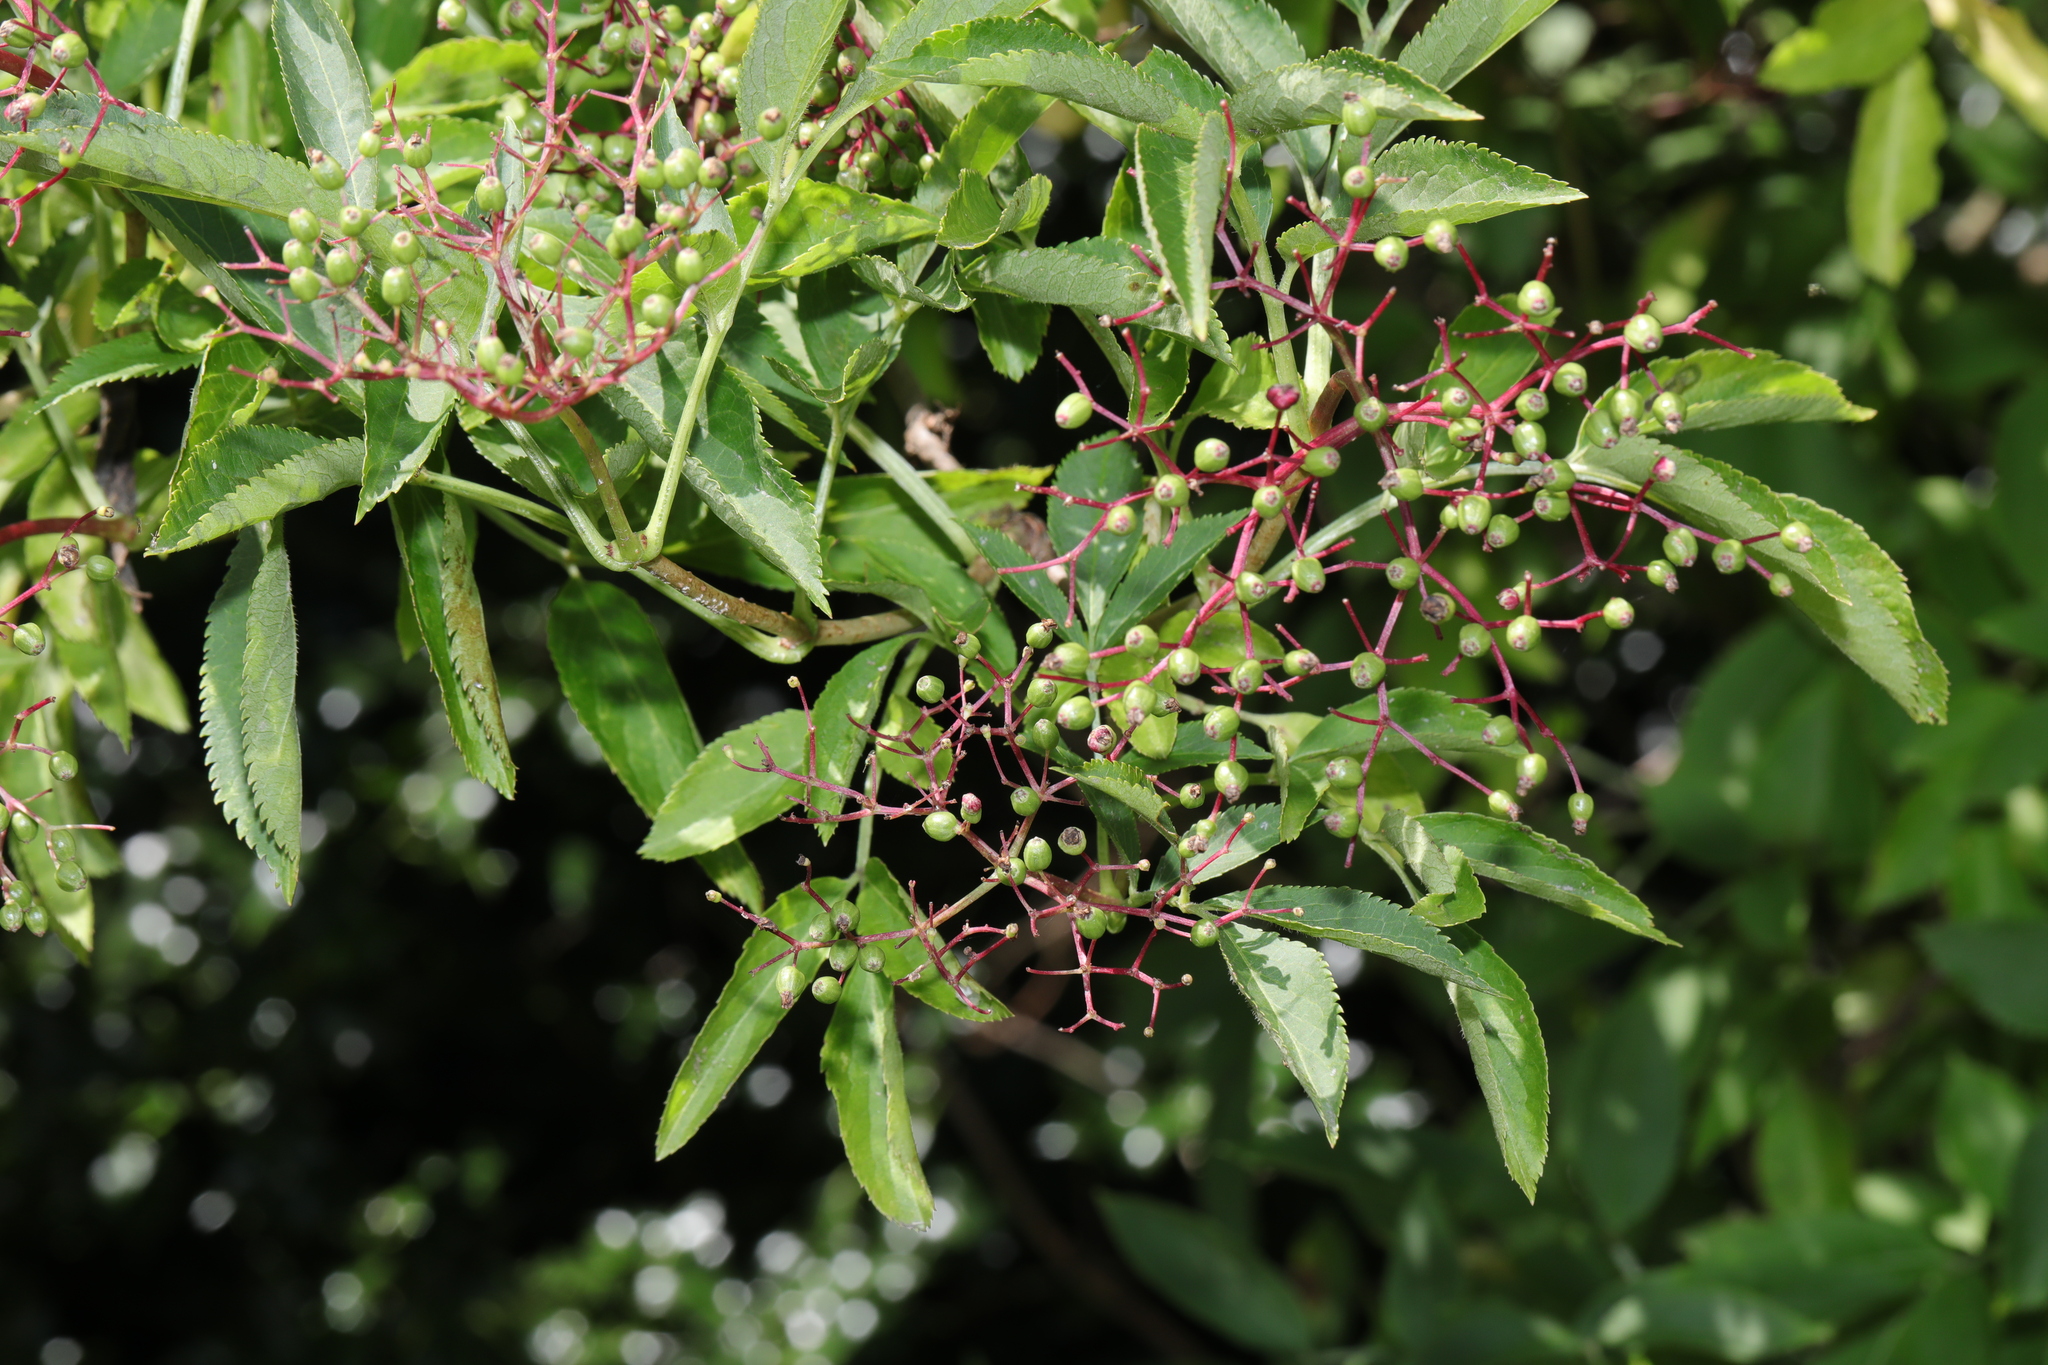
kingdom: Plantae
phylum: Tracheophyta
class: Magnoliopsida
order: Dipsacales
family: Viburnaceae
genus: Sambucus
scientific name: Sambucus nigra
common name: Elder
